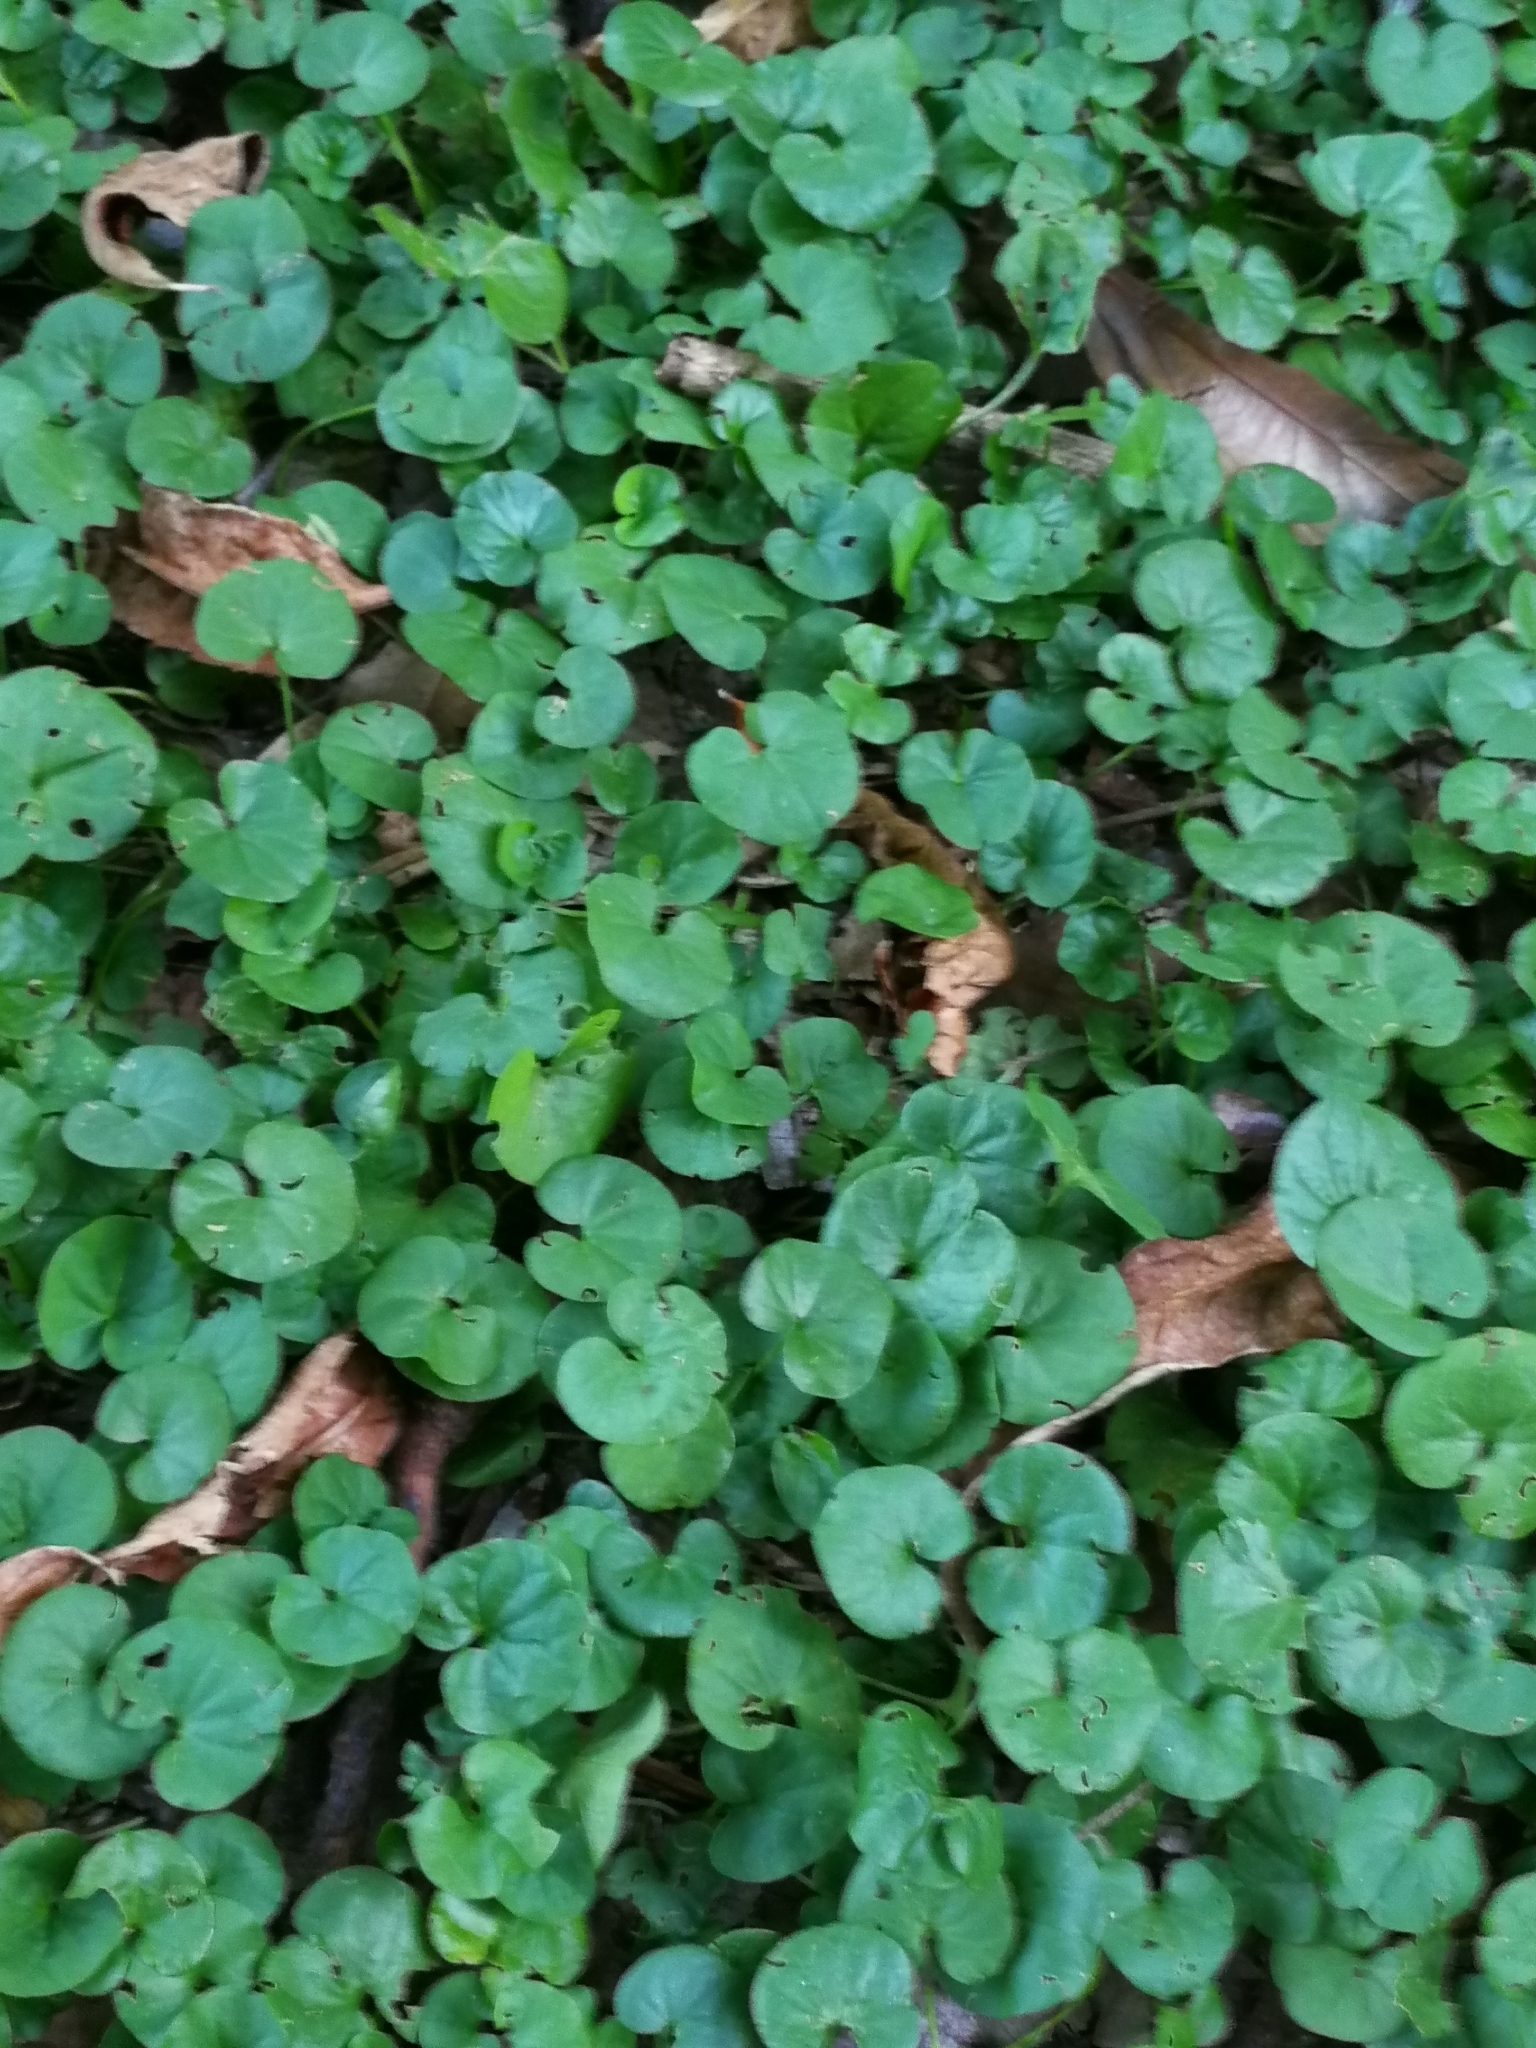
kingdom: Plantae
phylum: Tracheophyta
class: Magnoliopsida
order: Solanales
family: Convolvulaceae
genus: Dichondra
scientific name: Dichondra repens
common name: Kidneyweed
